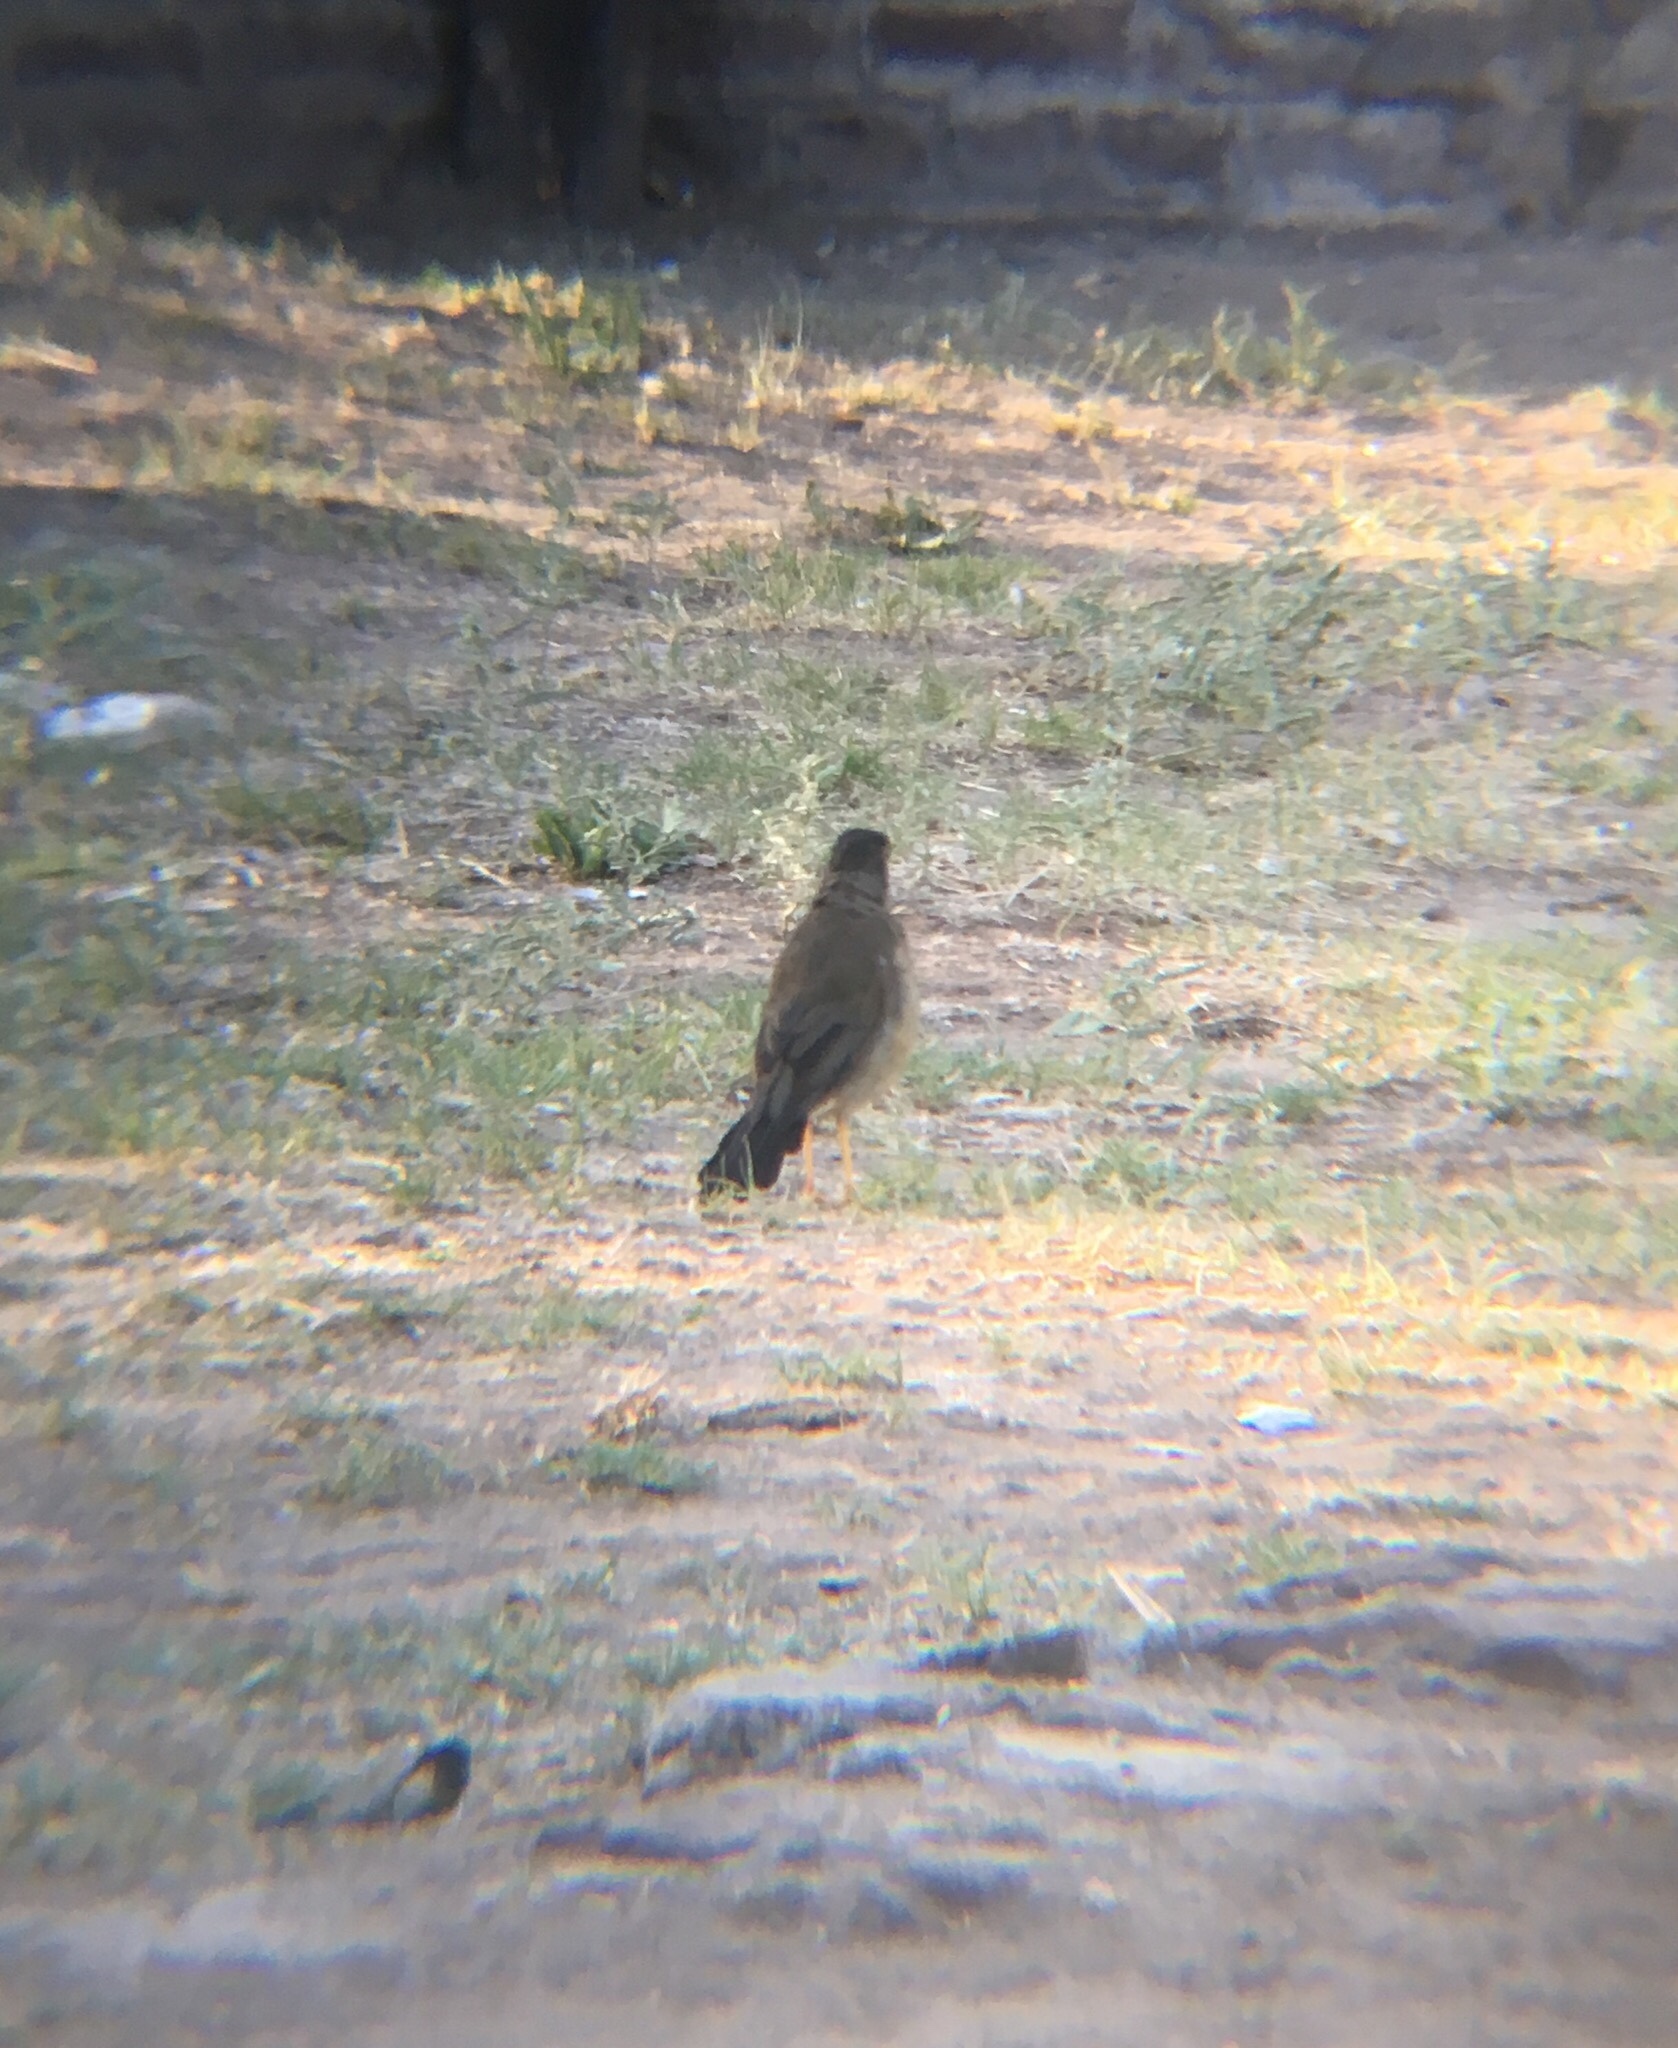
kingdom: Animalia
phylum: Chordata
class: Aves
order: Passeriformes
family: Turdidae
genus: Turdus
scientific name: Turdus falcklandii
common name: Austral thrush
